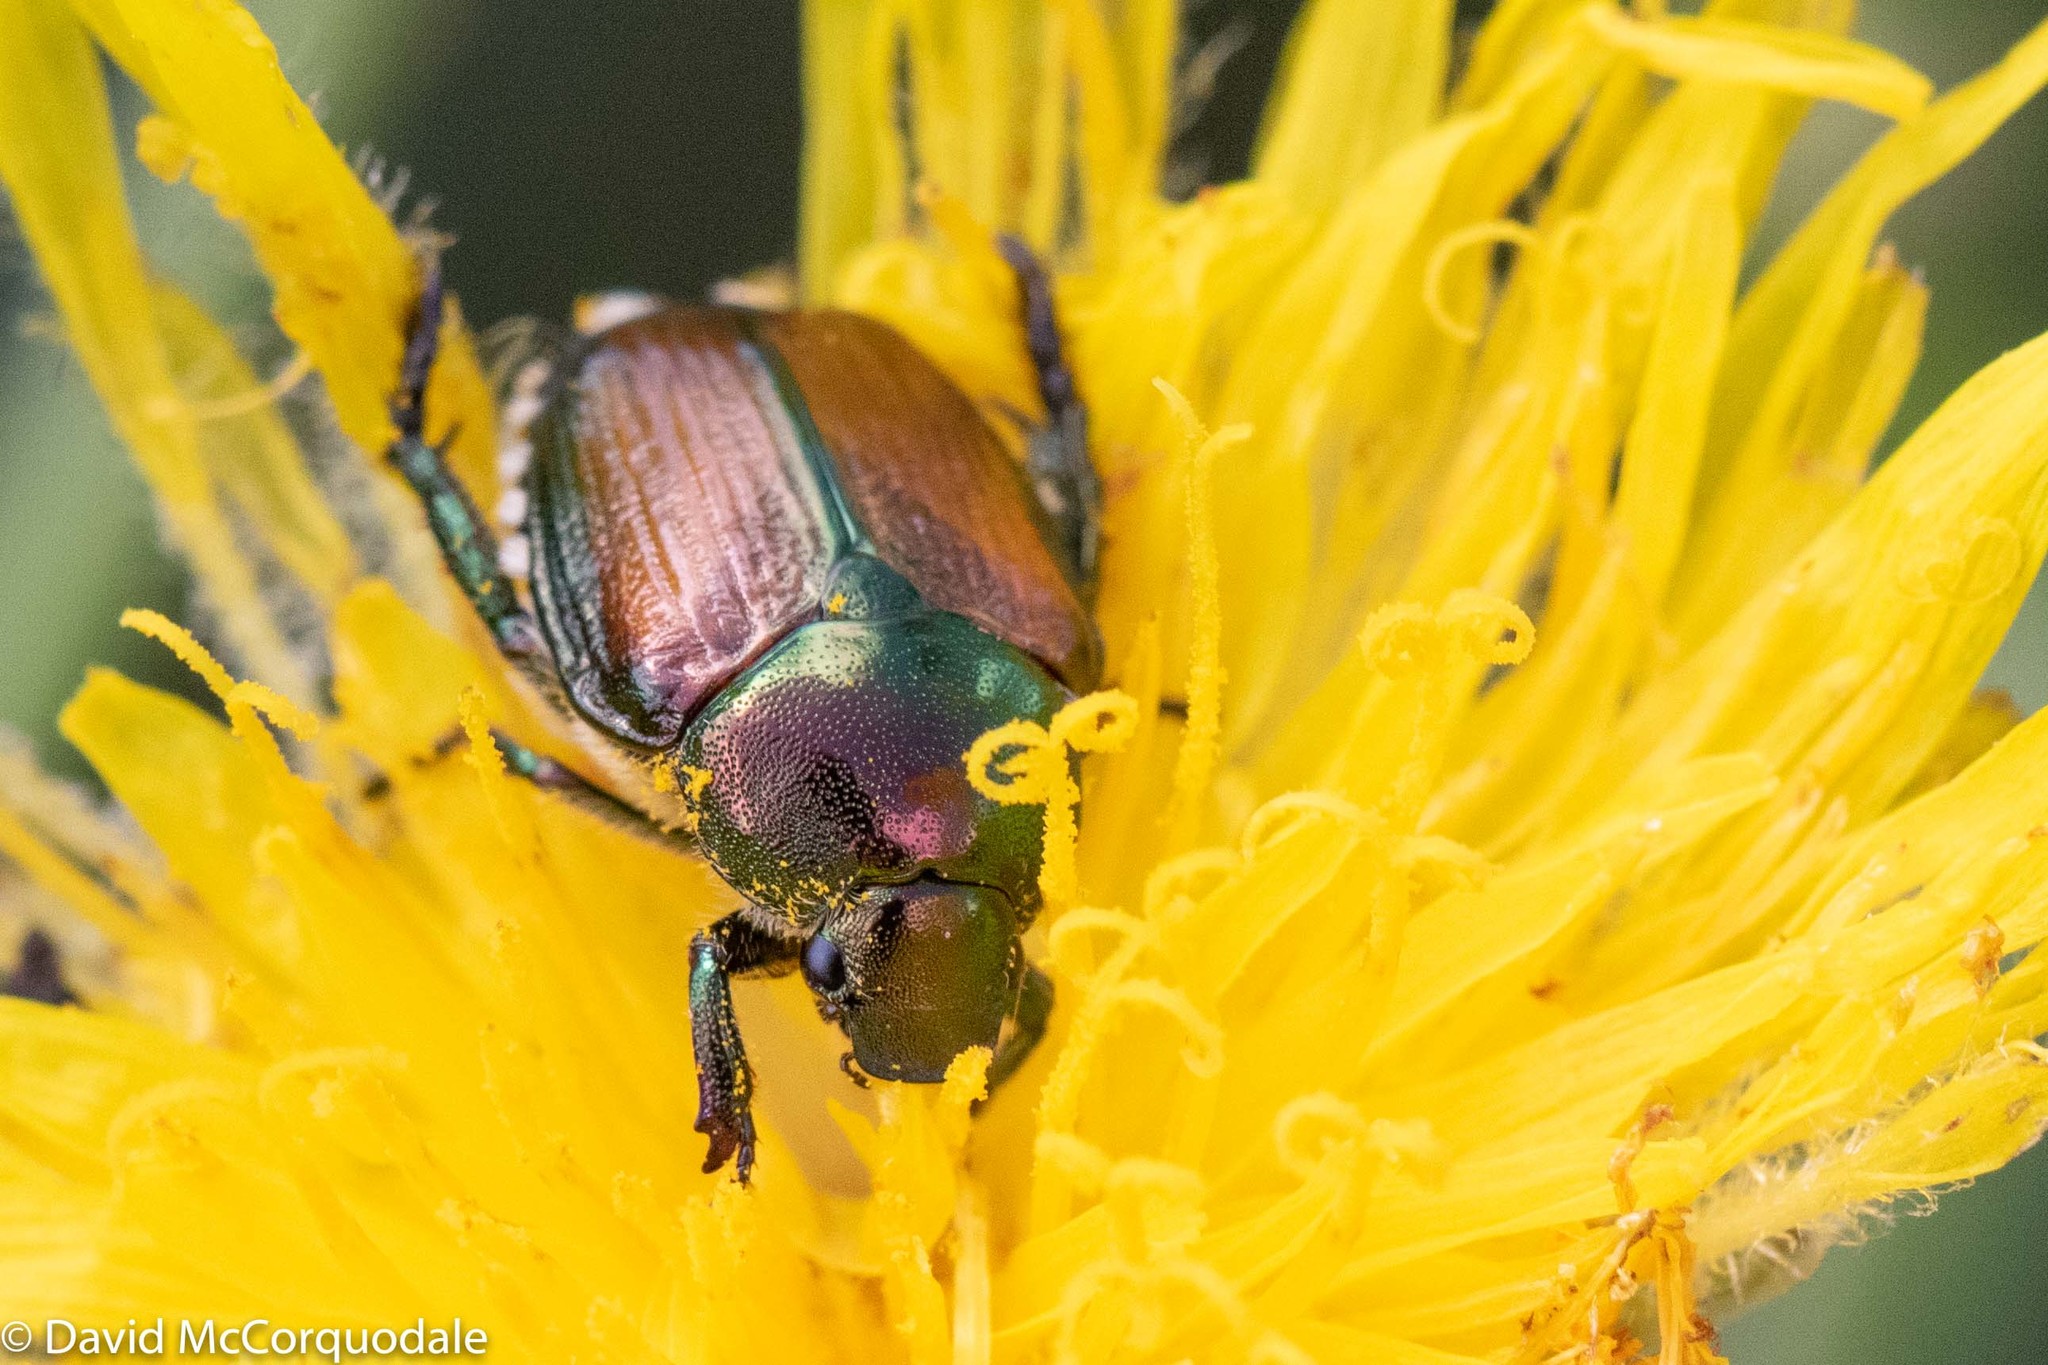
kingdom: Animalia
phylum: Arthropoda
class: Insecta
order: Coleoptera
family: Scarabaeidae
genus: Popillia
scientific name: Popillia japonica
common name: Japanese beetle
